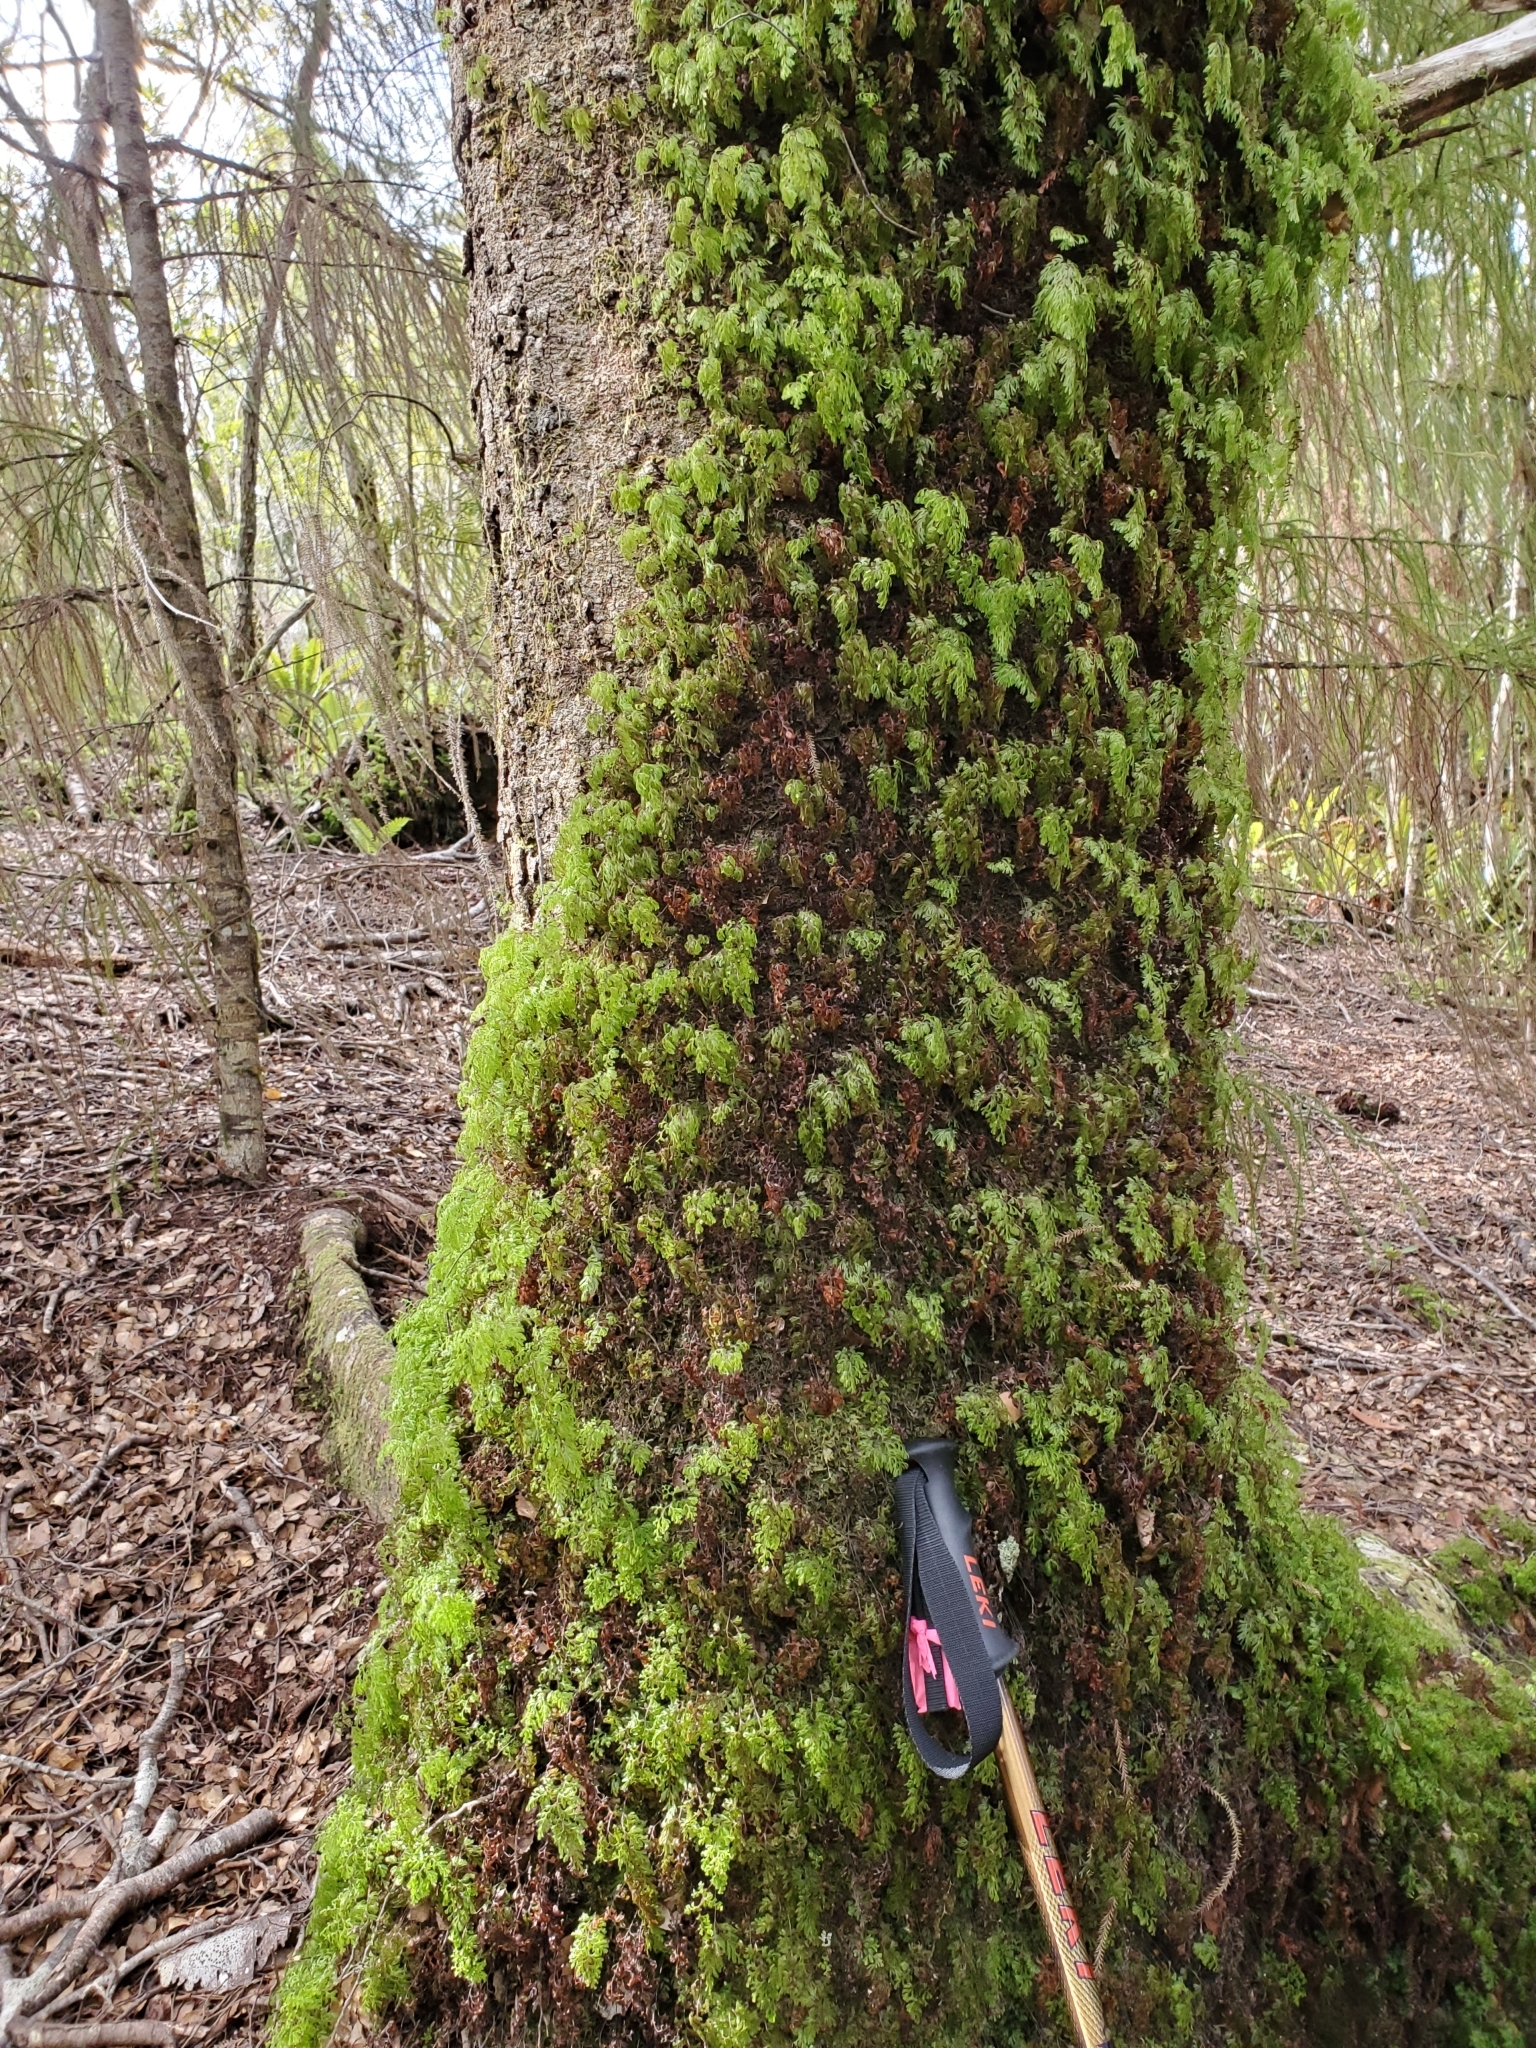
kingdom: Plantae
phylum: Tracheophyta
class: Polypodiopsida
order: Hymenophyllales
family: Hymenophyllaceae
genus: Hymenophyllum
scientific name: Hymenophyllum multifidum
